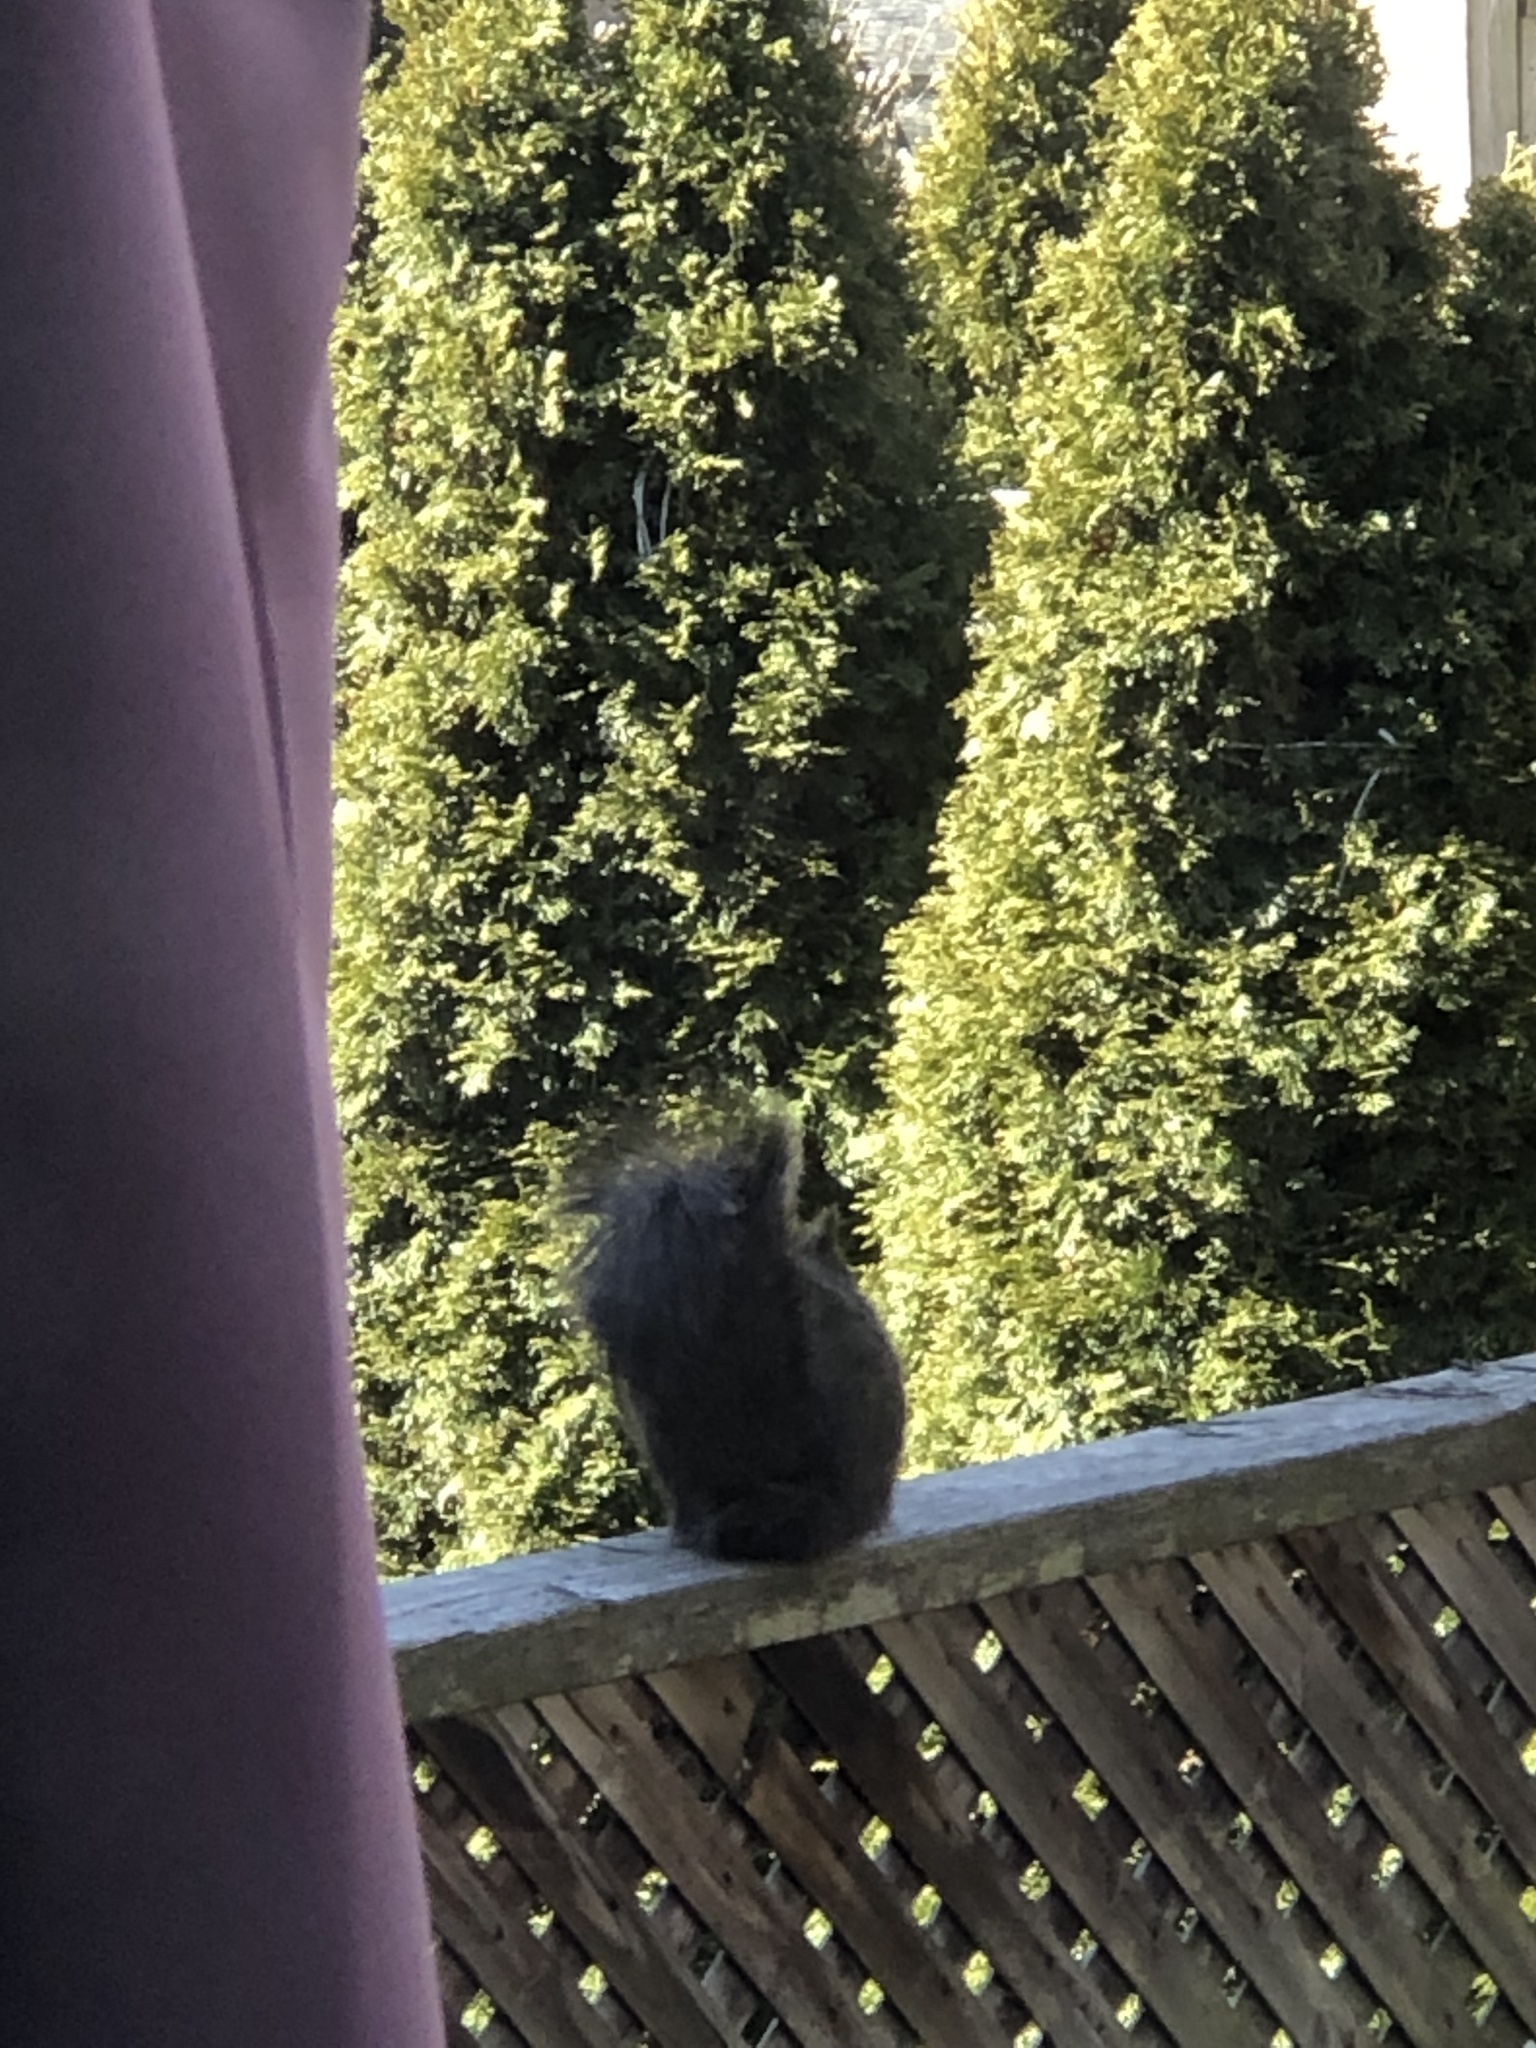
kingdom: Animalia
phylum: Chordata
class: Mammalia
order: Rodentia
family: Sciuridae
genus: Sciurus
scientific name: Sciurus carolinensis
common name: Eastern gray squirrel
